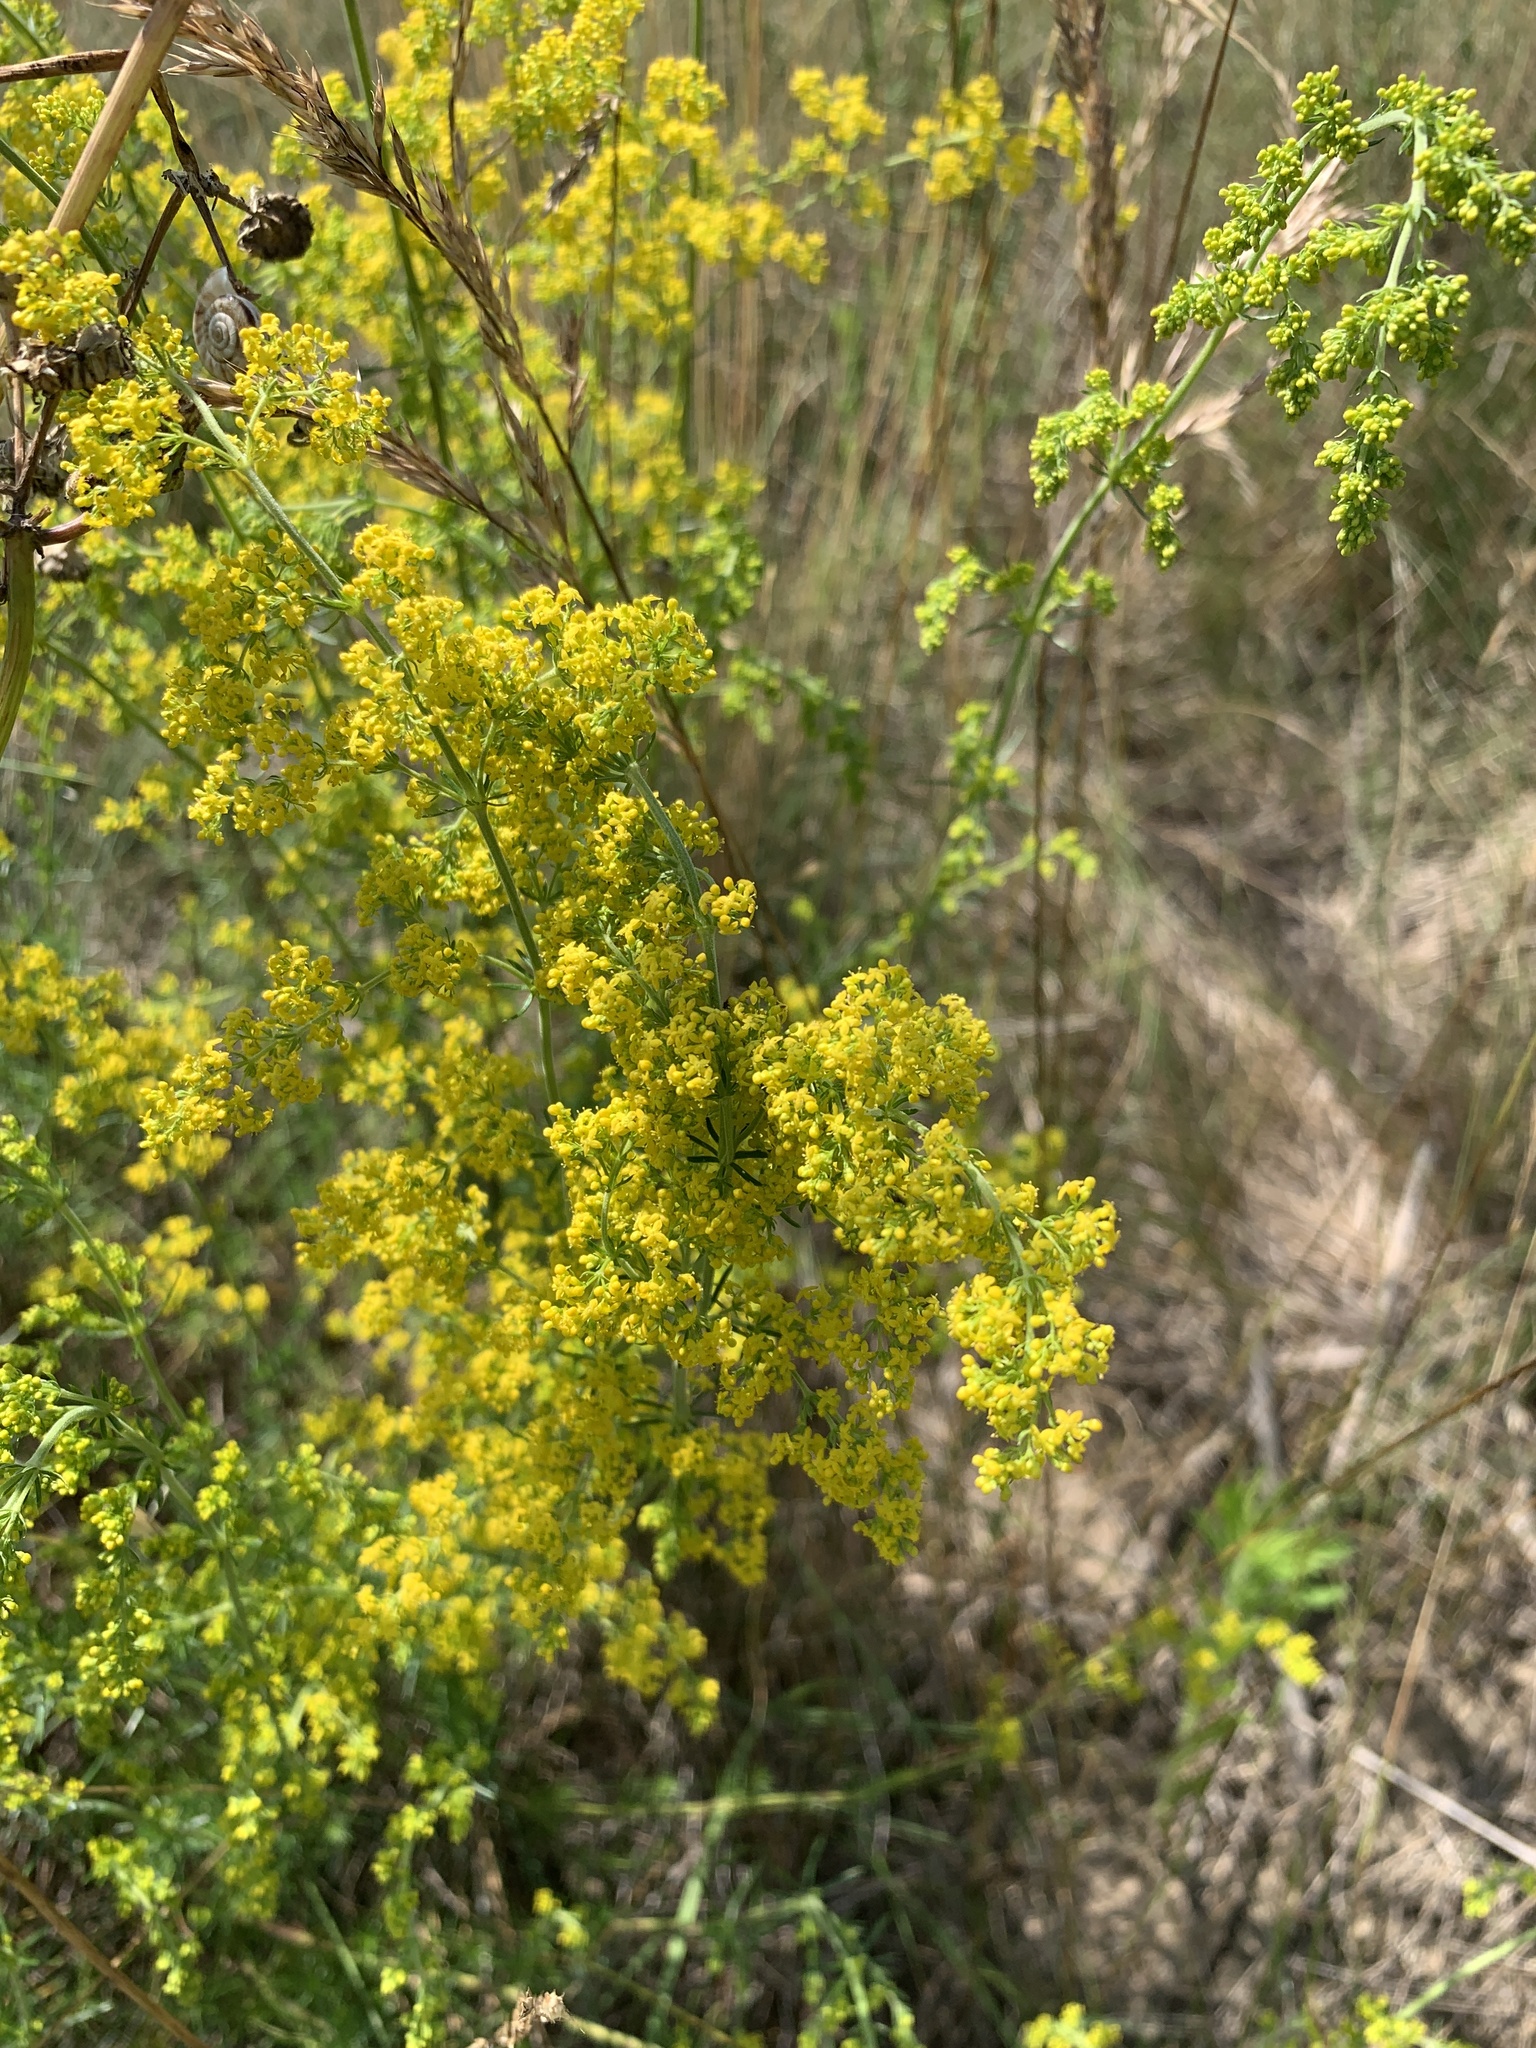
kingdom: Plantae
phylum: Tracheophyta
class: Magnoliopsida
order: Gentianales
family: Rubiaceae
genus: Galium
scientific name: Galium verum
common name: Lady's bedstraw
